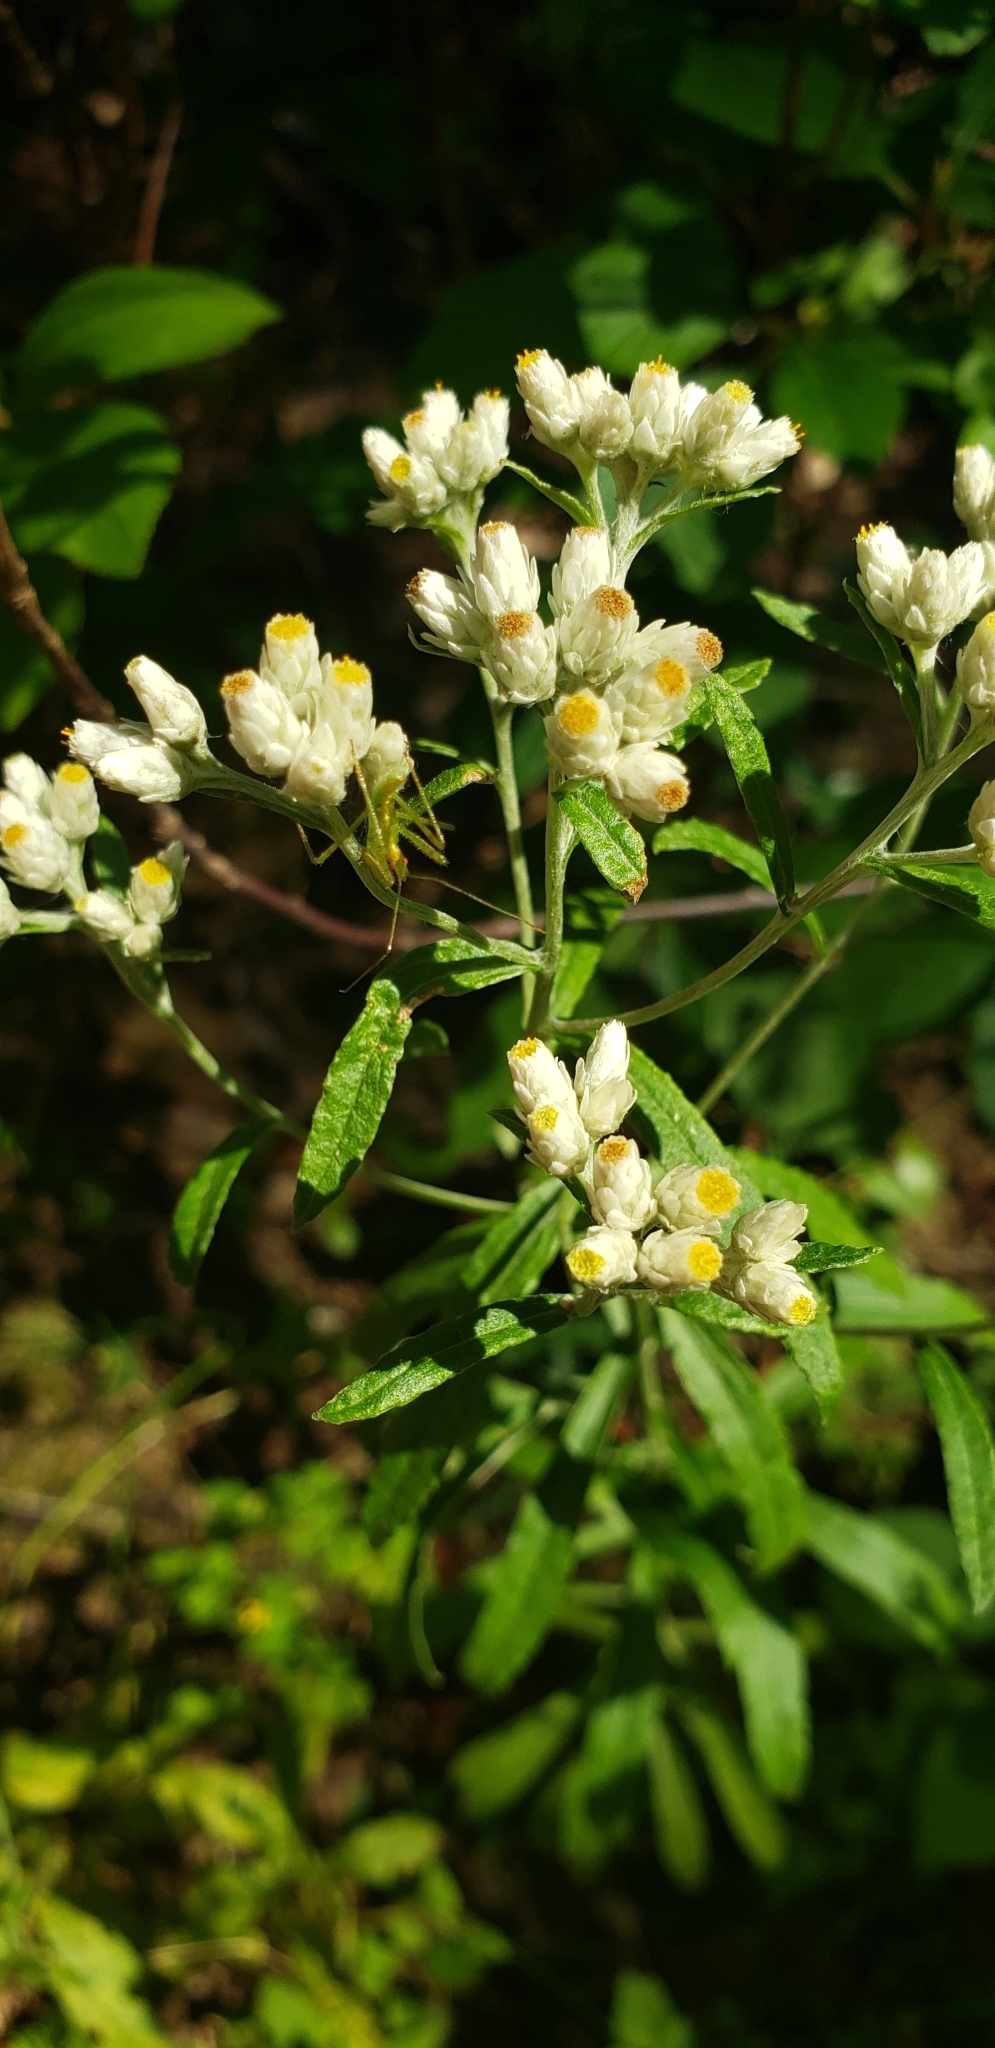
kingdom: Plantae
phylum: Tracheophyta
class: Magnoliopsida
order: Asterales
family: Asteraceae
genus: Pseudognaphalium
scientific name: Pseudognaphalium obtusifolium
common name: Eastern rabbit-tobacco
